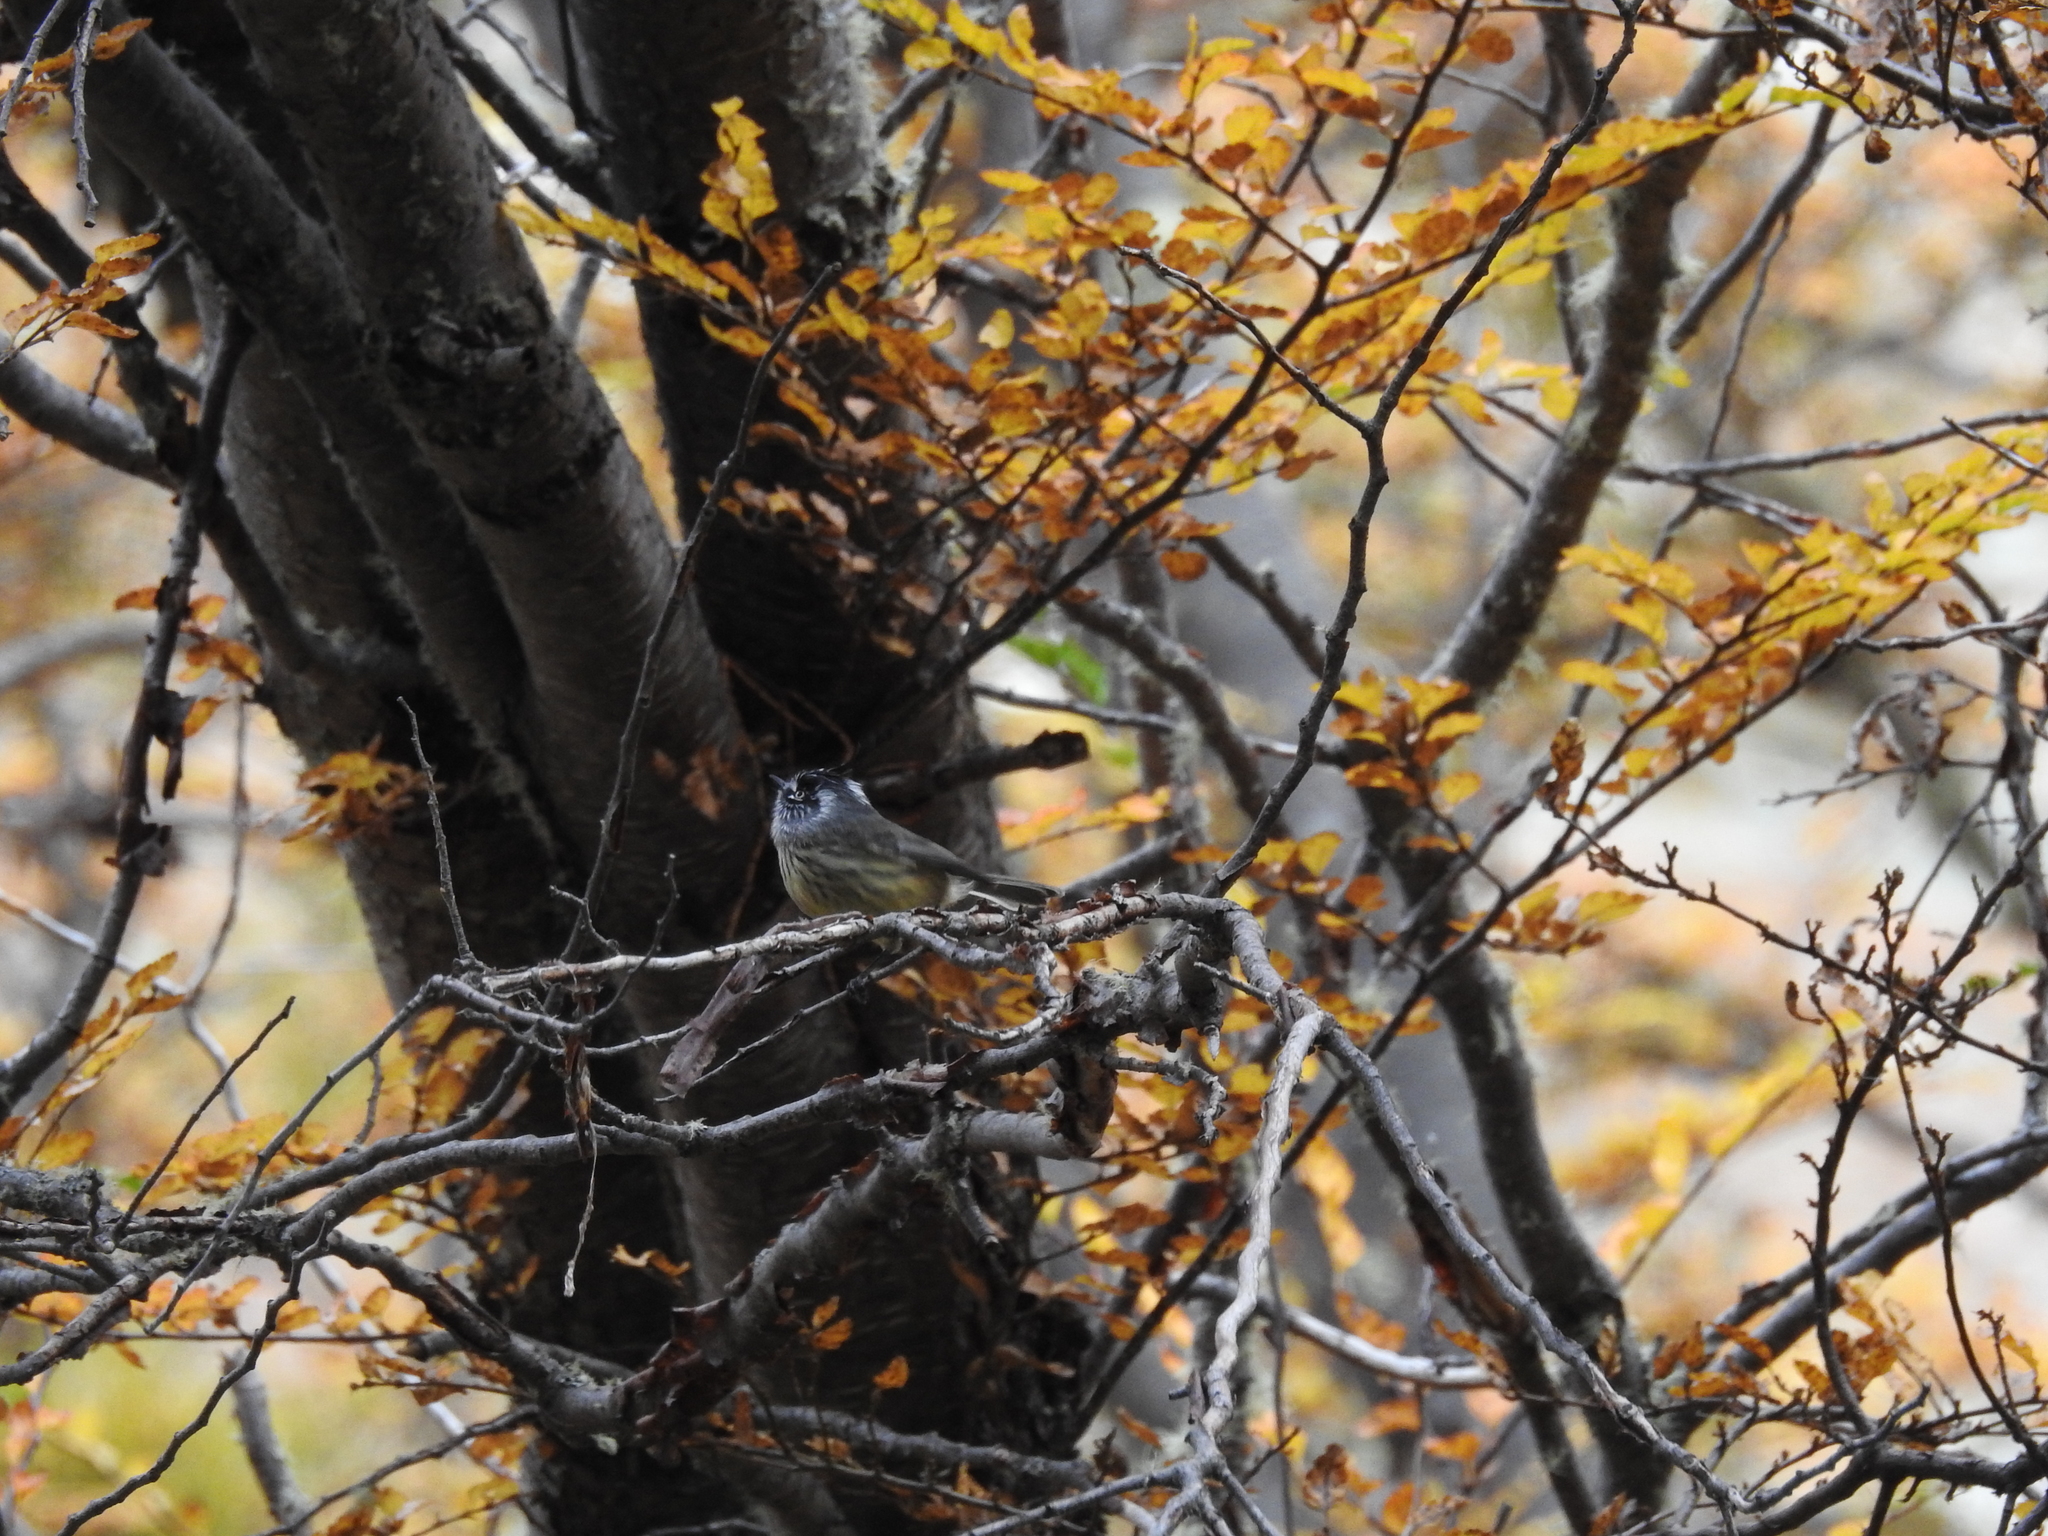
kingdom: Animalia
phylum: Chordata
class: Aves
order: Passeriformes
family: Tyrannidae
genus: Anairetes
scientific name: Anairetes parulus
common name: Tufted tit-tyrant
